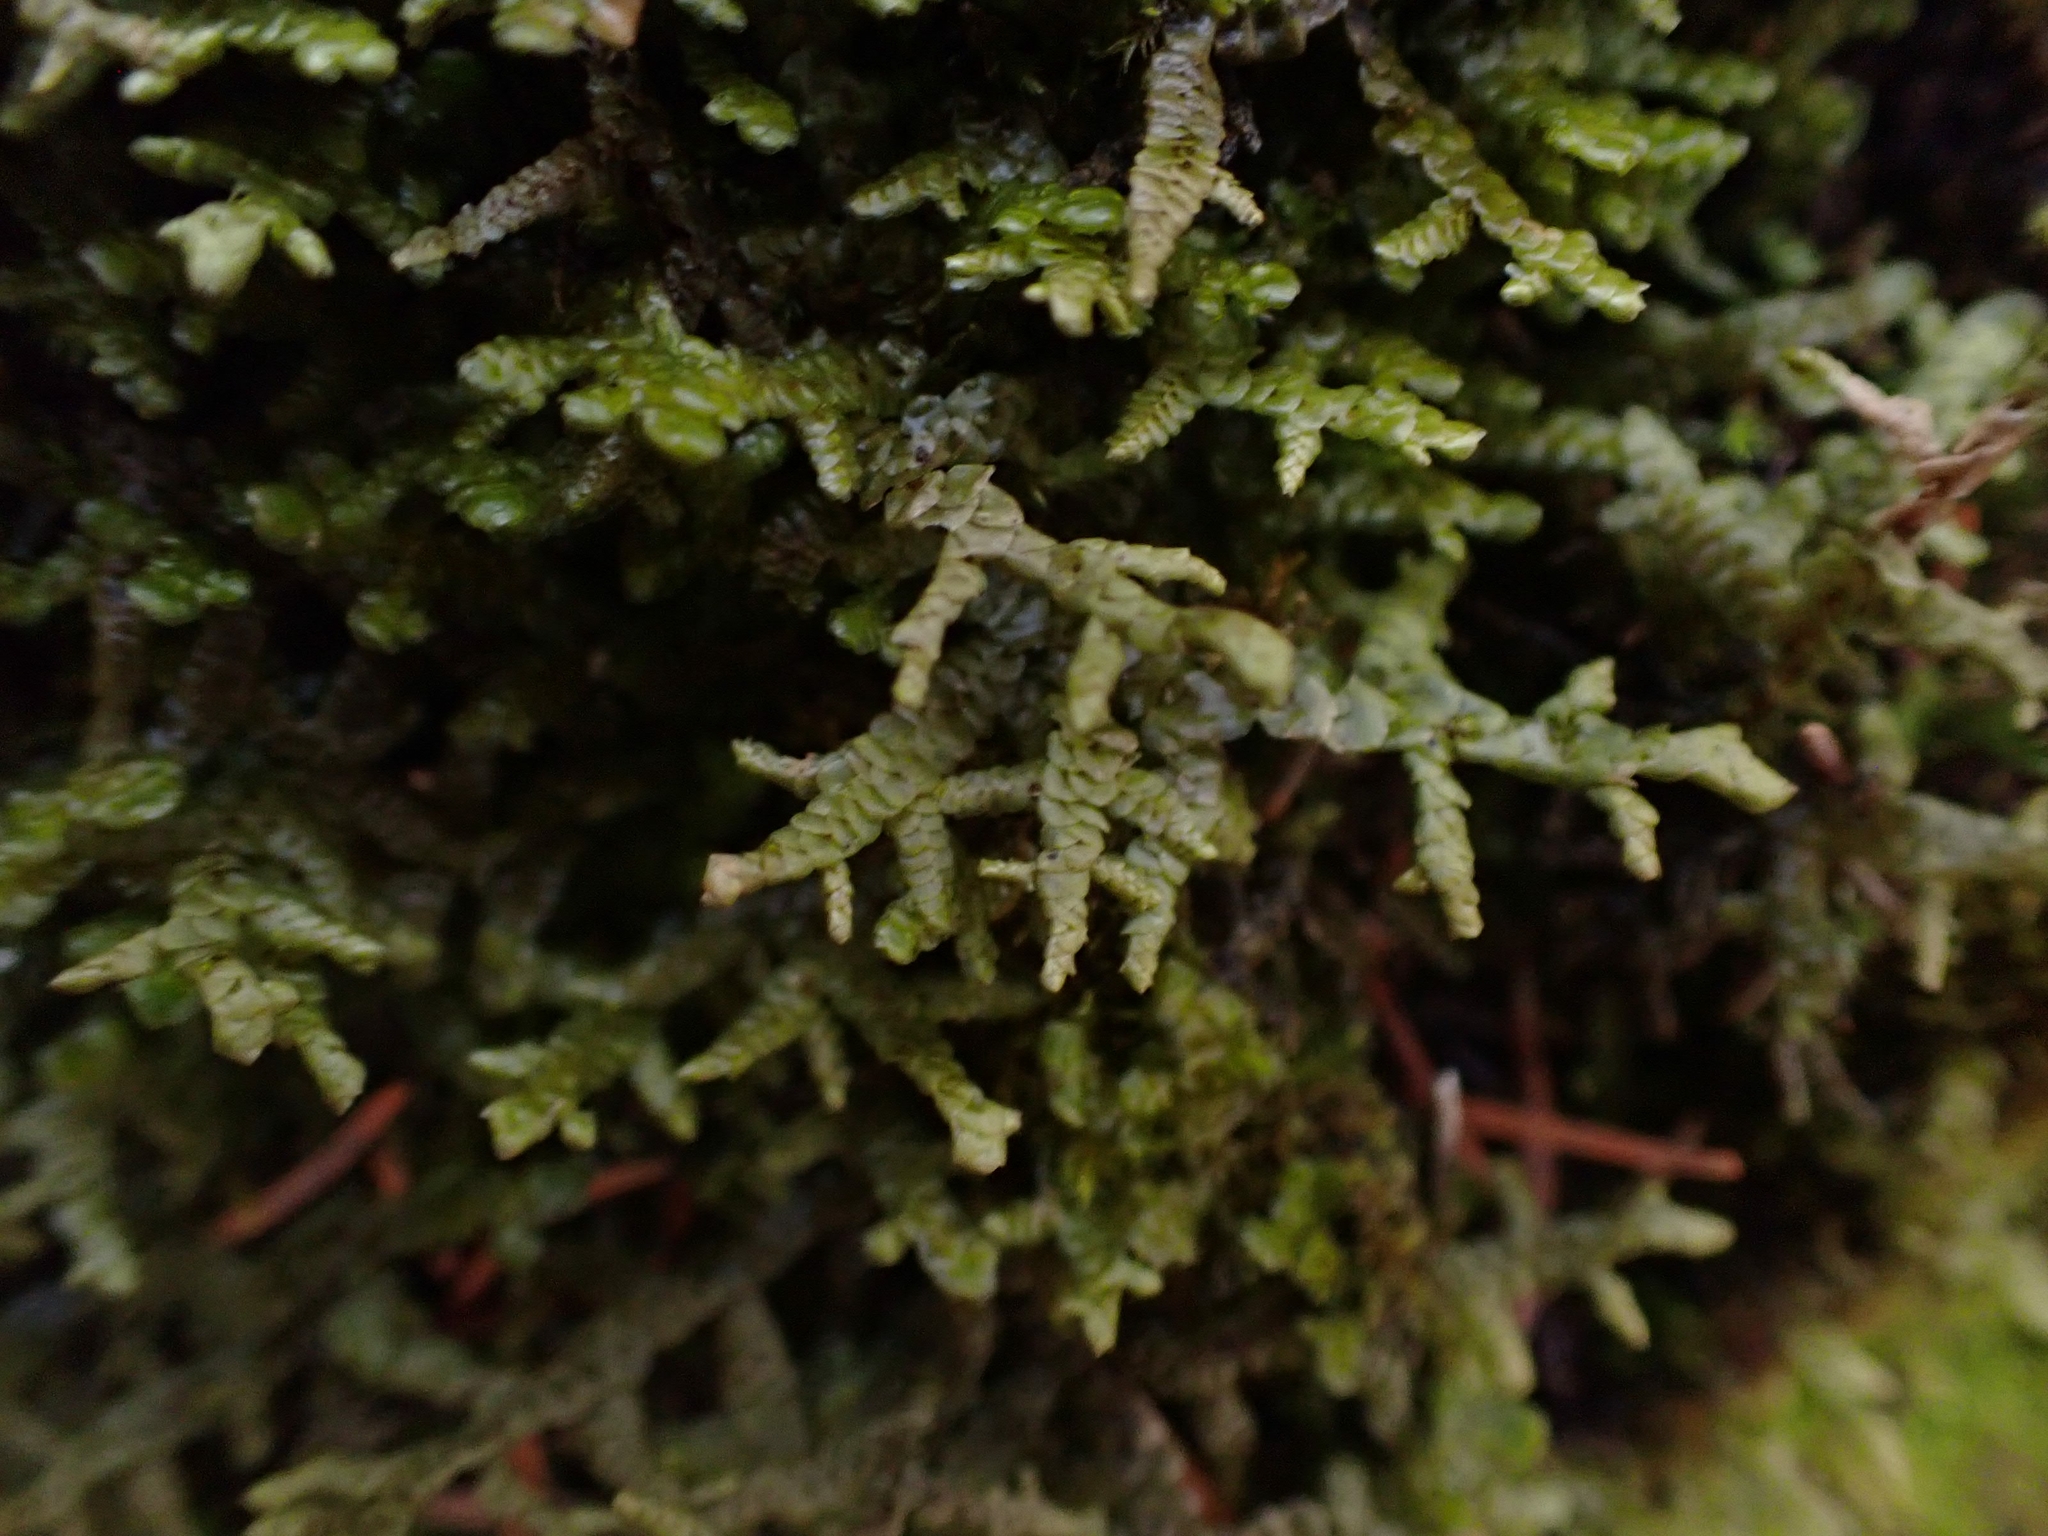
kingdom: Plantae
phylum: Marchantiophyta
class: Jungermanniopsida
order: Porellales
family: Porellaceae
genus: Porella
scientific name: Porella platyphylla
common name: Wall scalewort
